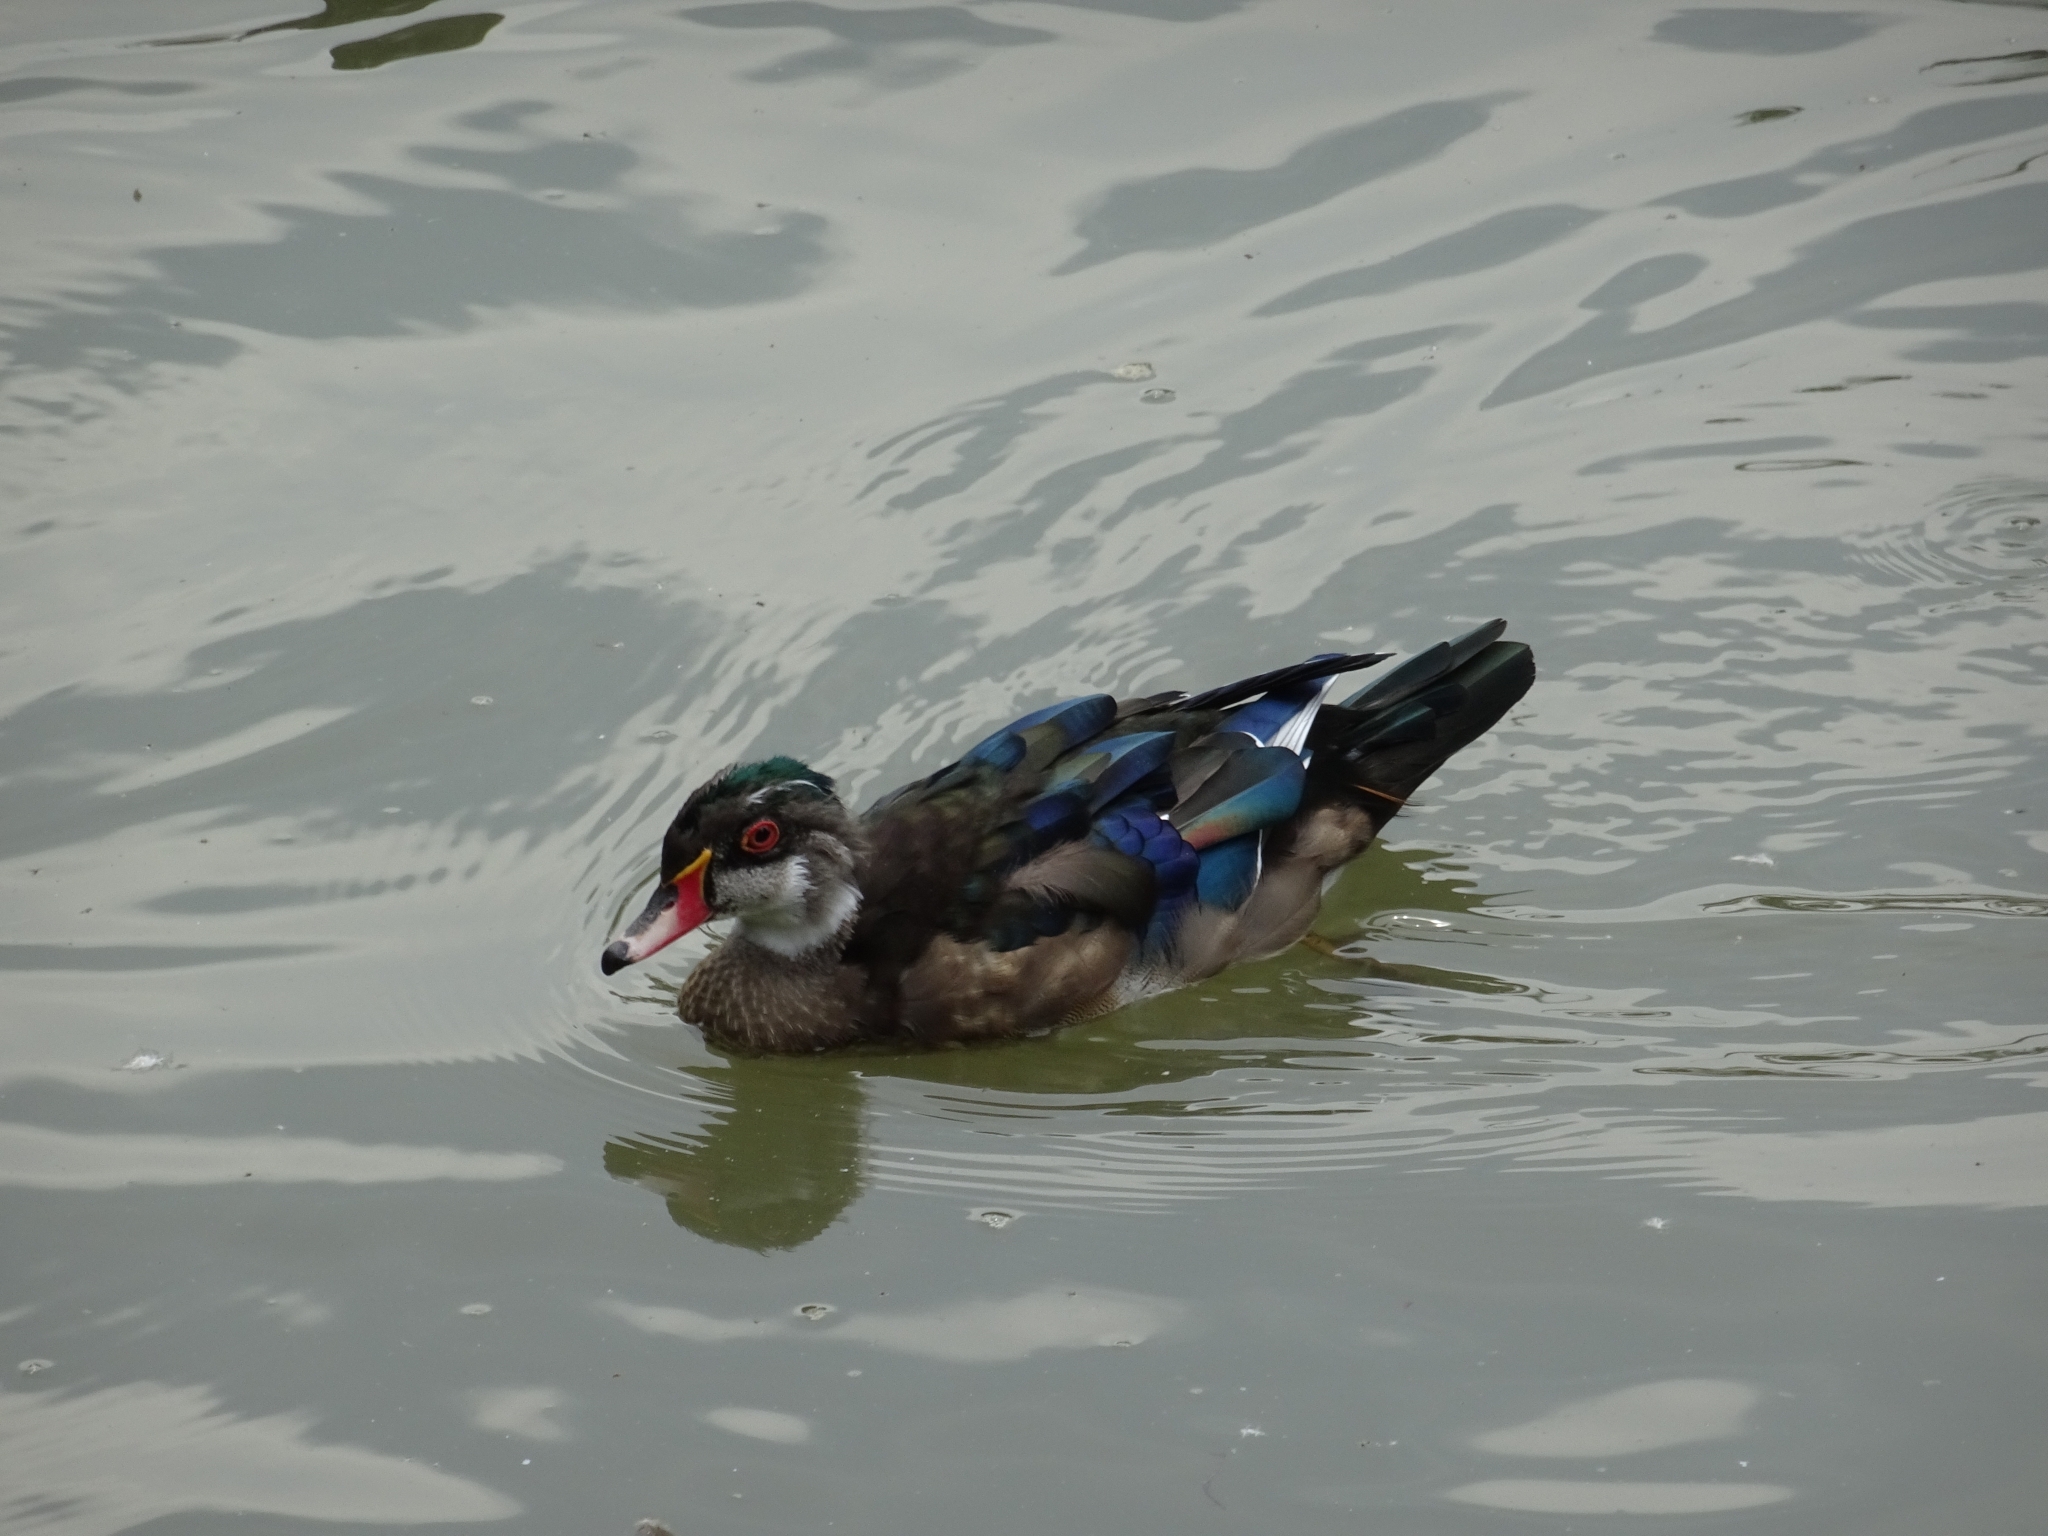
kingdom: Animalia
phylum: Chordata
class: Aves
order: Anseriformes
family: Anatidae
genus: Aix
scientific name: Aix sponsa
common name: Wood duck
